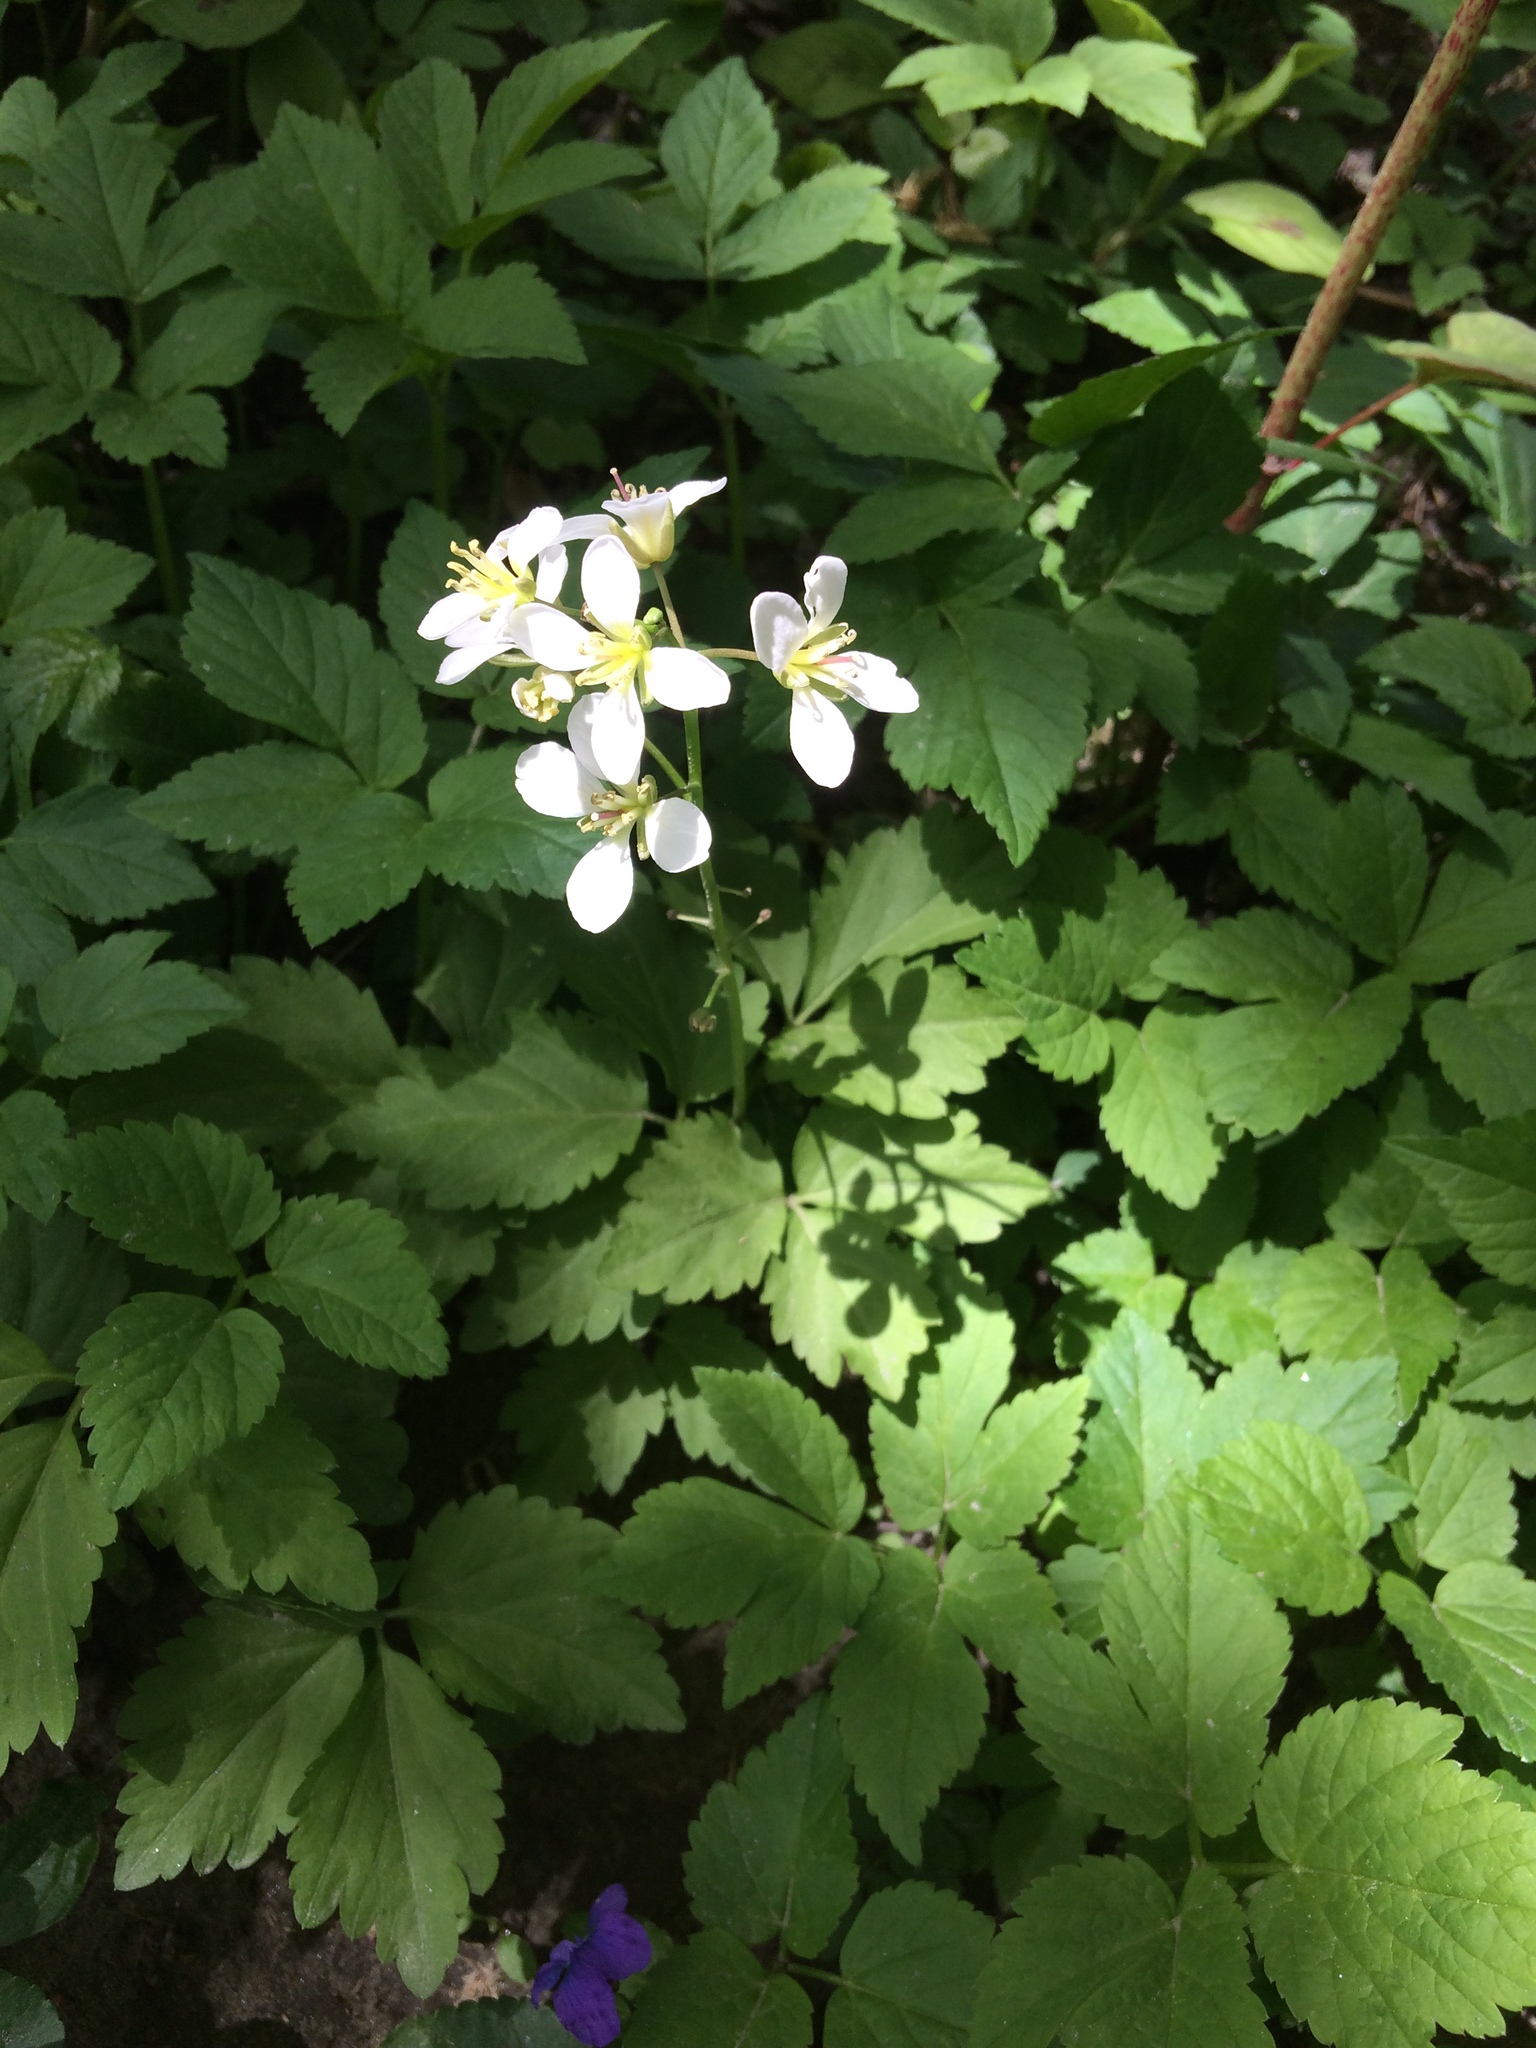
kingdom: Plantae
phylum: Tracheophyta
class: Magnoliopsida
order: Brassicales
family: Brassicaceae
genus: Cardamine
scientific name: Cardamine diphylla
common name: Broad-leaved toothwort
